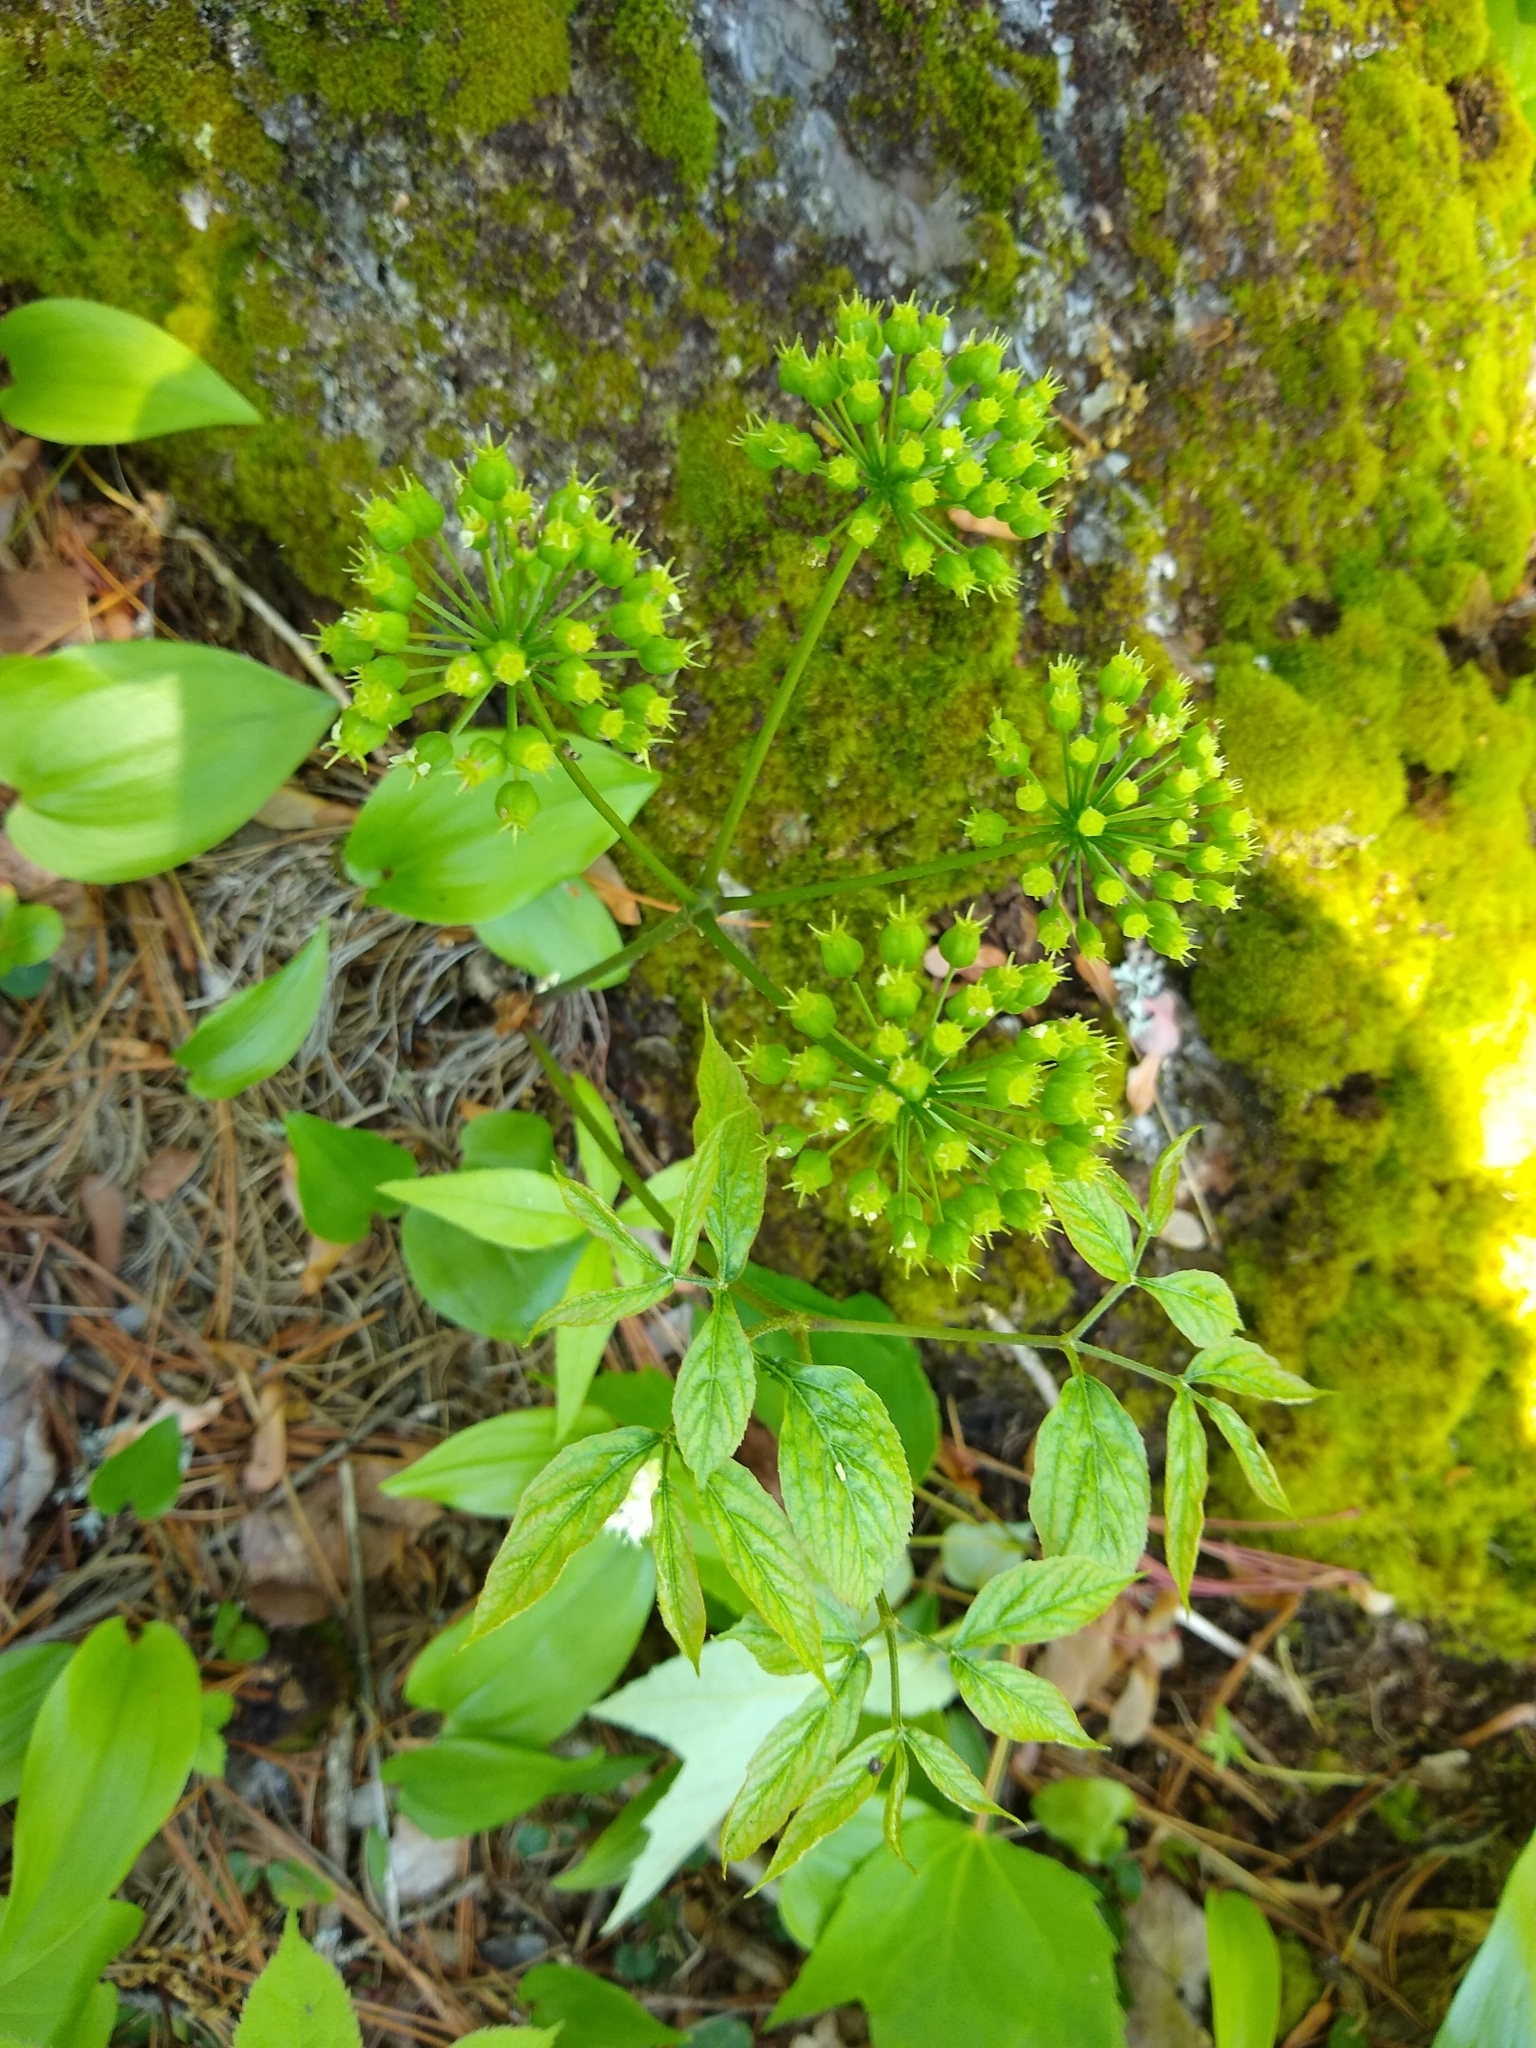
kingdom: Plantae
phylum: Tracheophyta
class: Magnoliopsida
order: Apiales
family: Araliaceae
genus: Aralia
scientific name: Aralia nudicaulis
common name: Wild sarsaparilla
